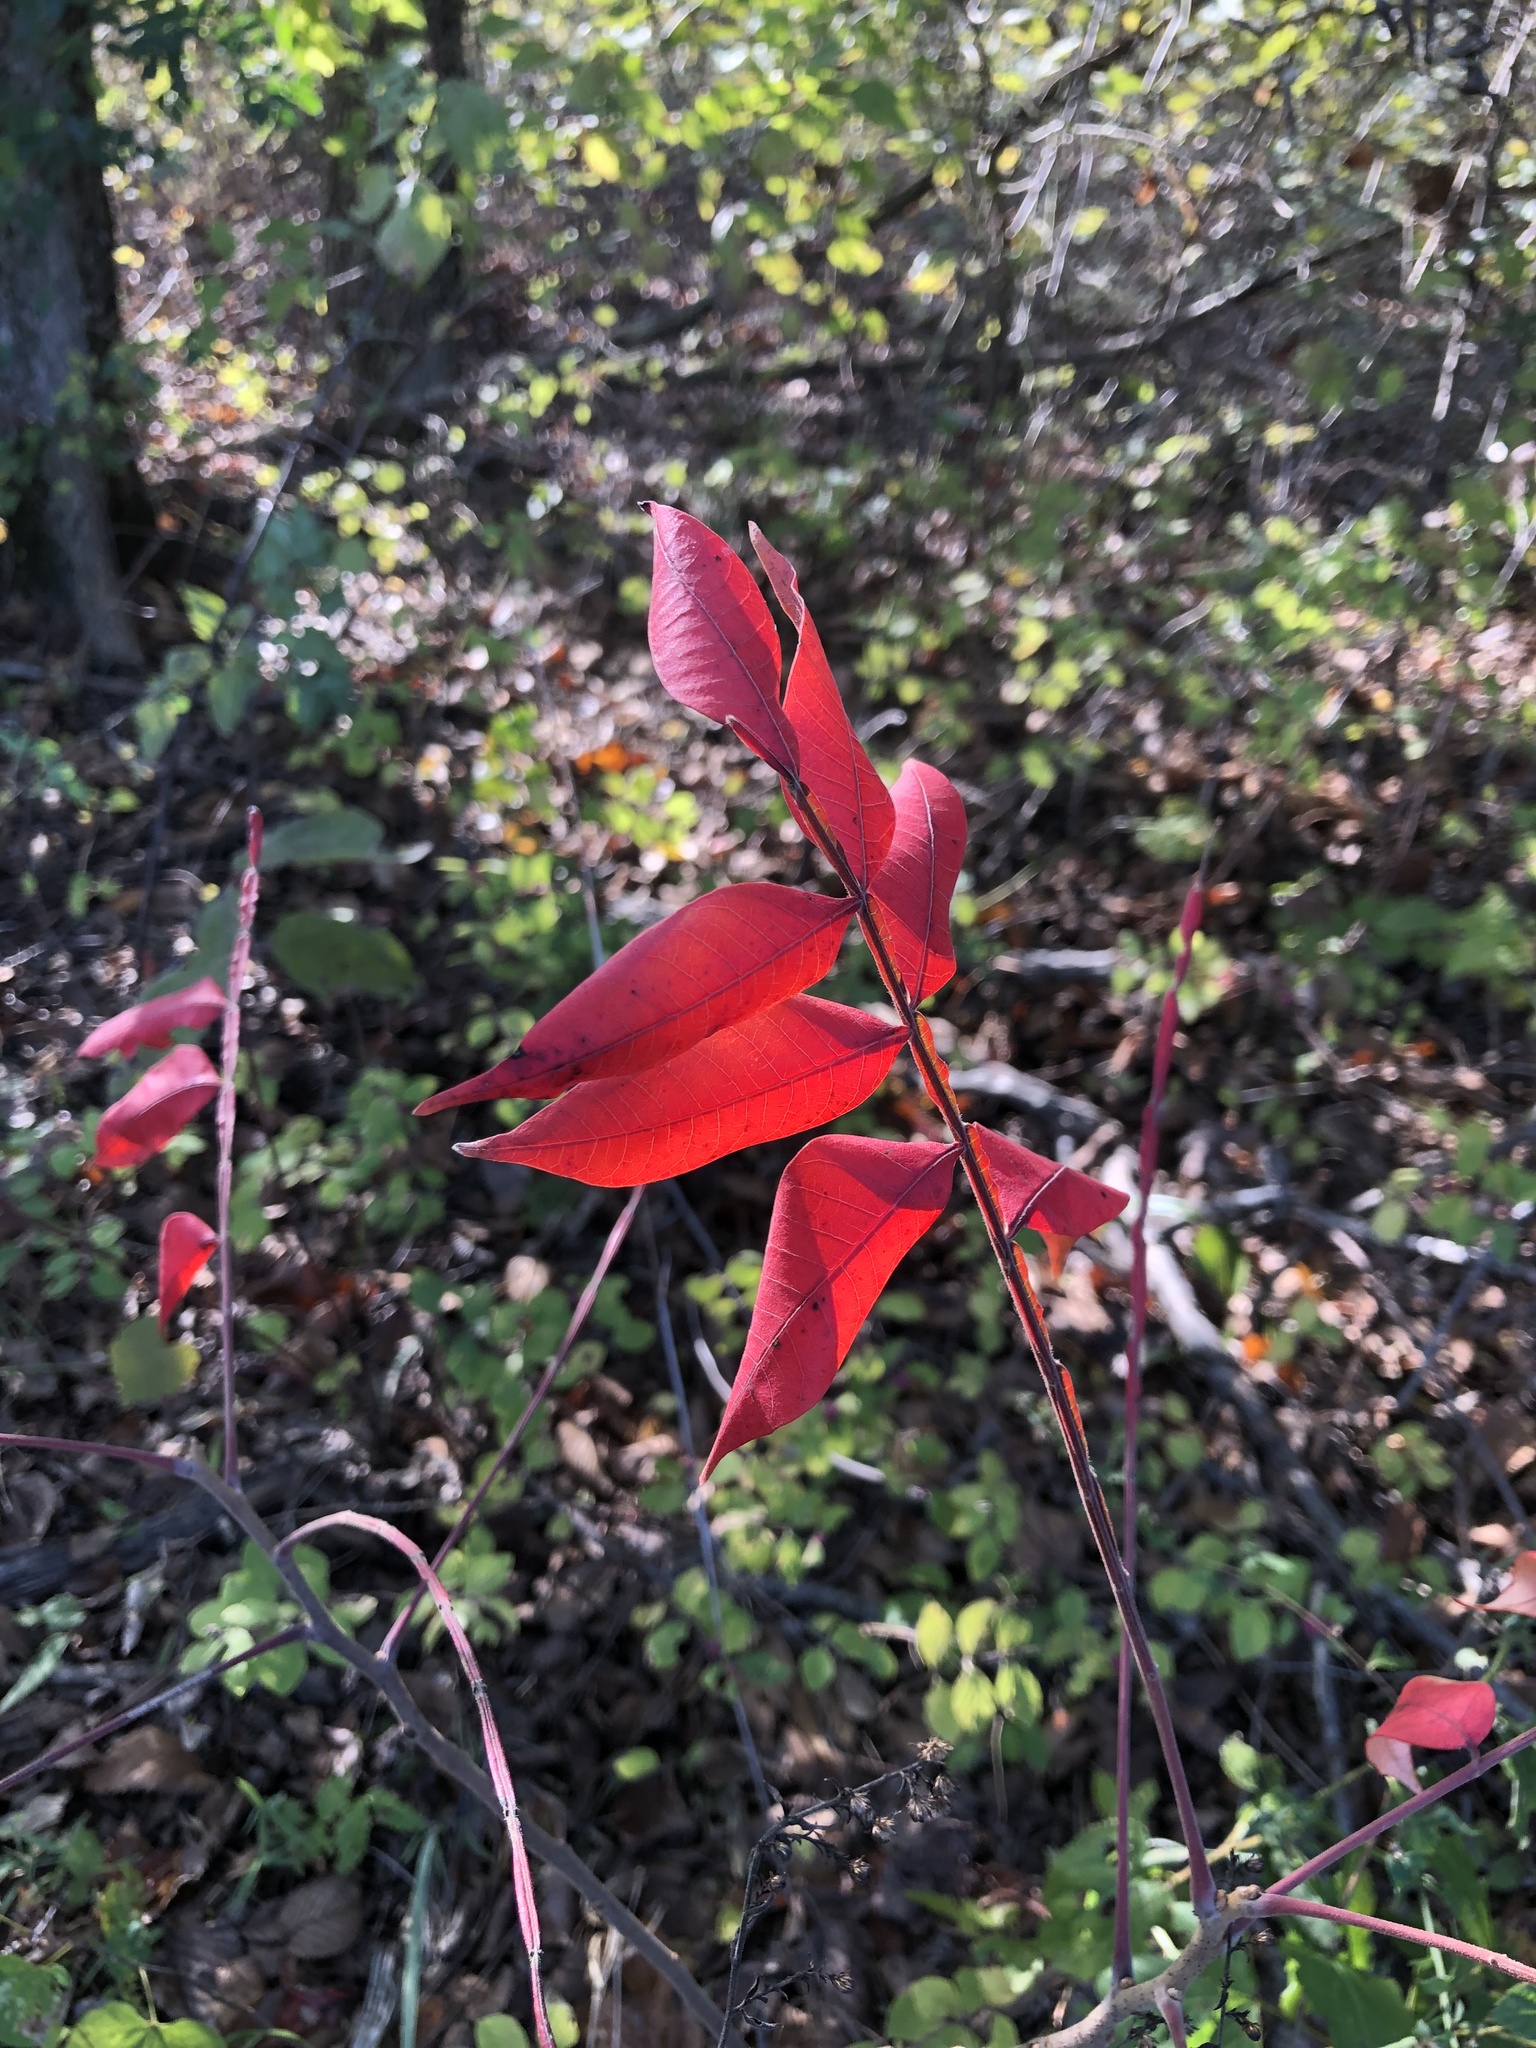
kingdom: Plantae
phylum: Tracheophyta
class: Magnoliopsida
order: Sapindales
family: Anacardiaceae
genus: Rhus
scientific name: Rhus copallina
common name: Shining sumac
